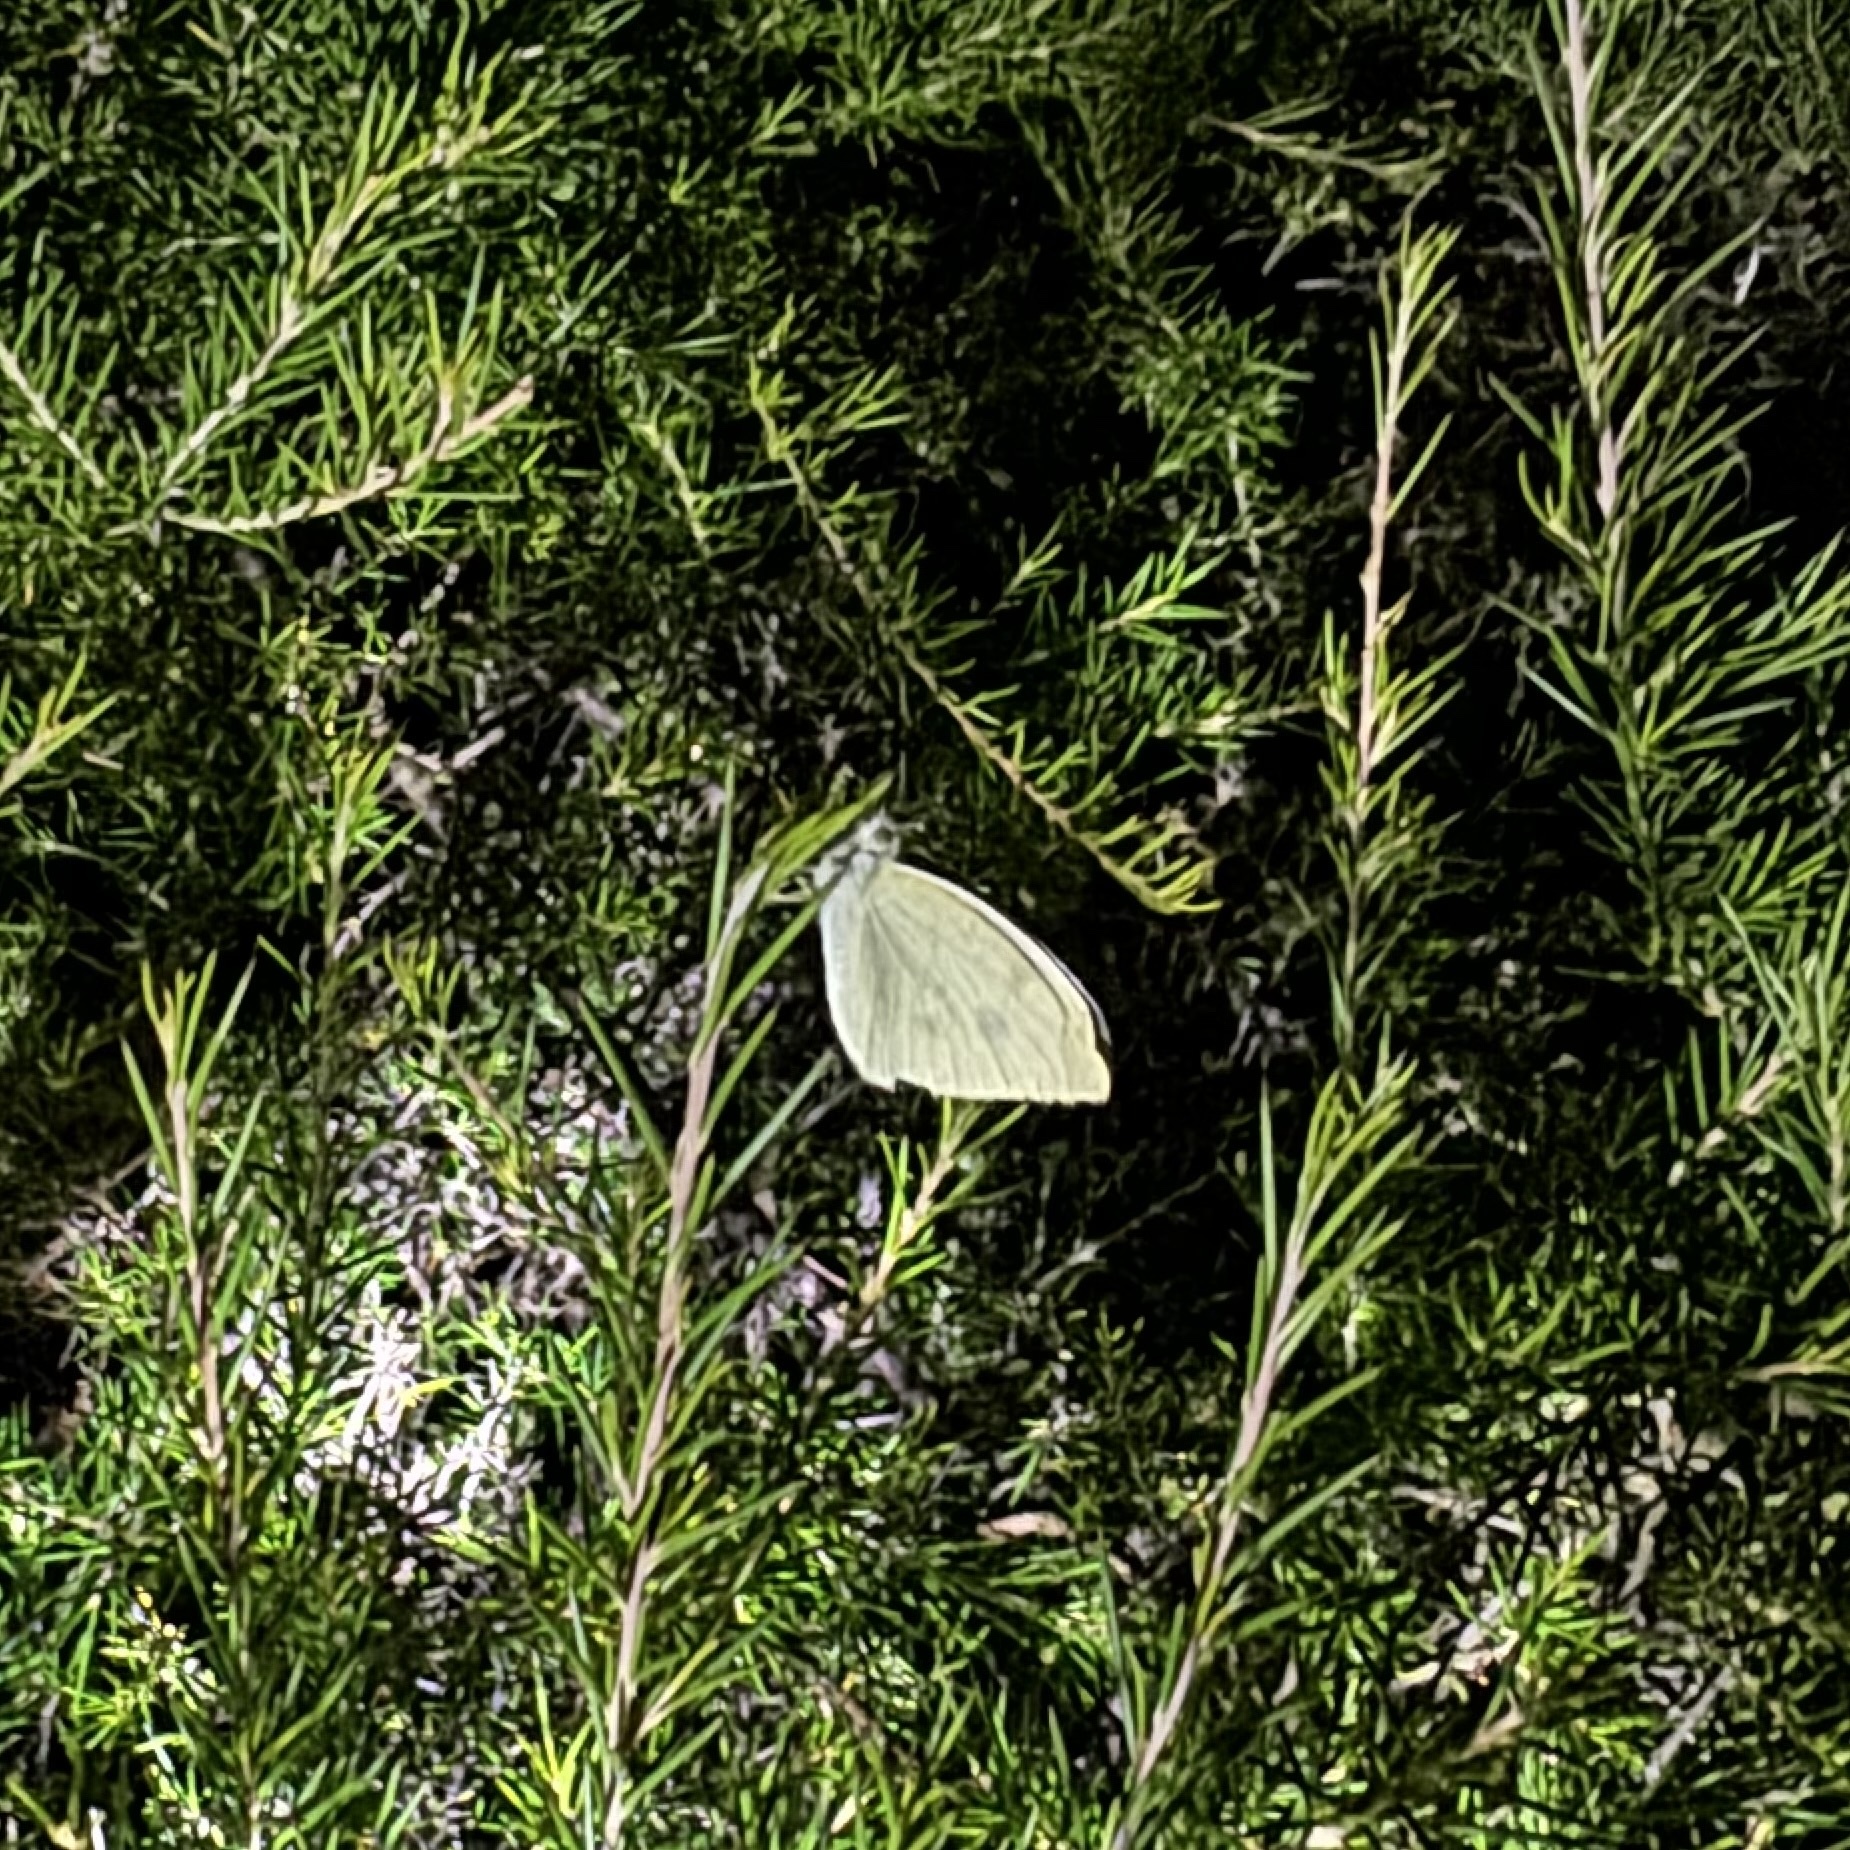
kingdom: Animalia
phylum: Arthropoda
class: Insecta
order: Lepidoptera
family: Pieridae
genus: Pieris
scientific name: Pieris rapae
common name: Small white
